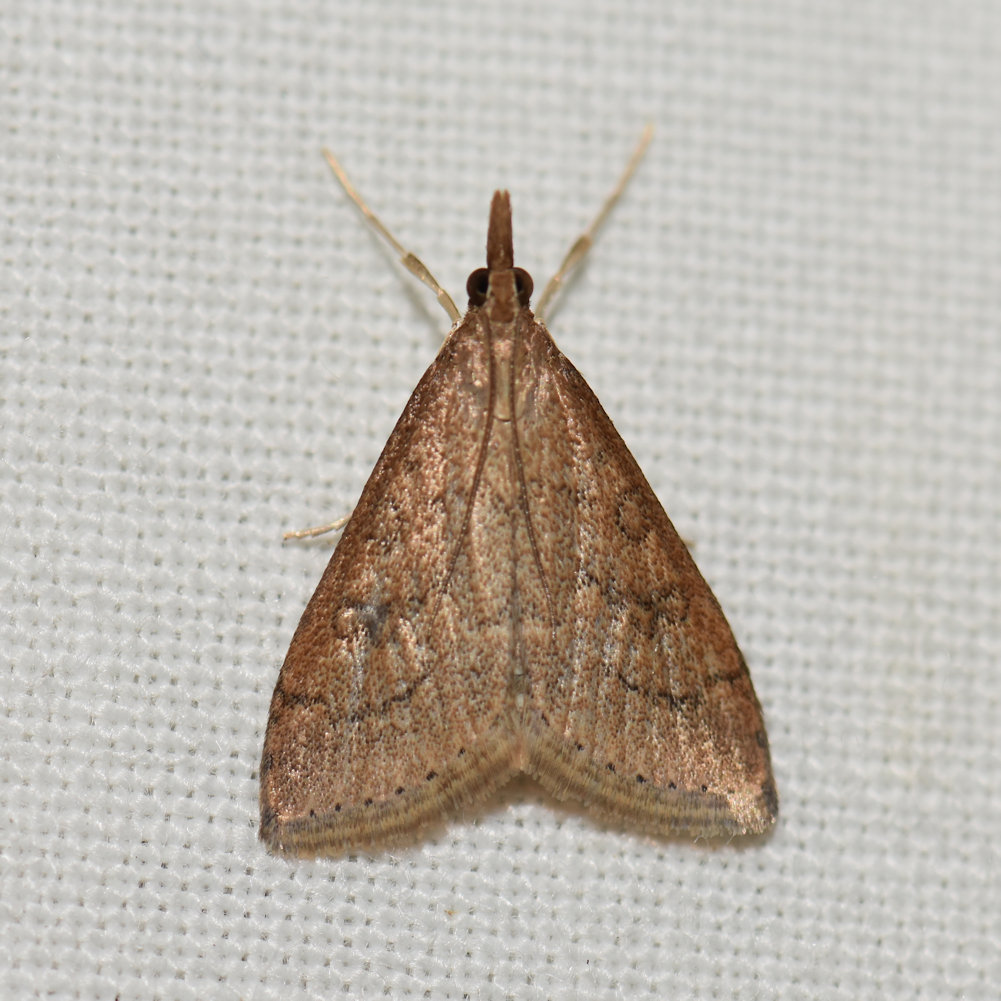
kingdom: Animalia
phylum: Arthropoda
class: Insecta
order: Lepidoptera
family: Crambidae
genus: Udea
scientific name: Udea rubigalis
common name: Celery leaftier moth
